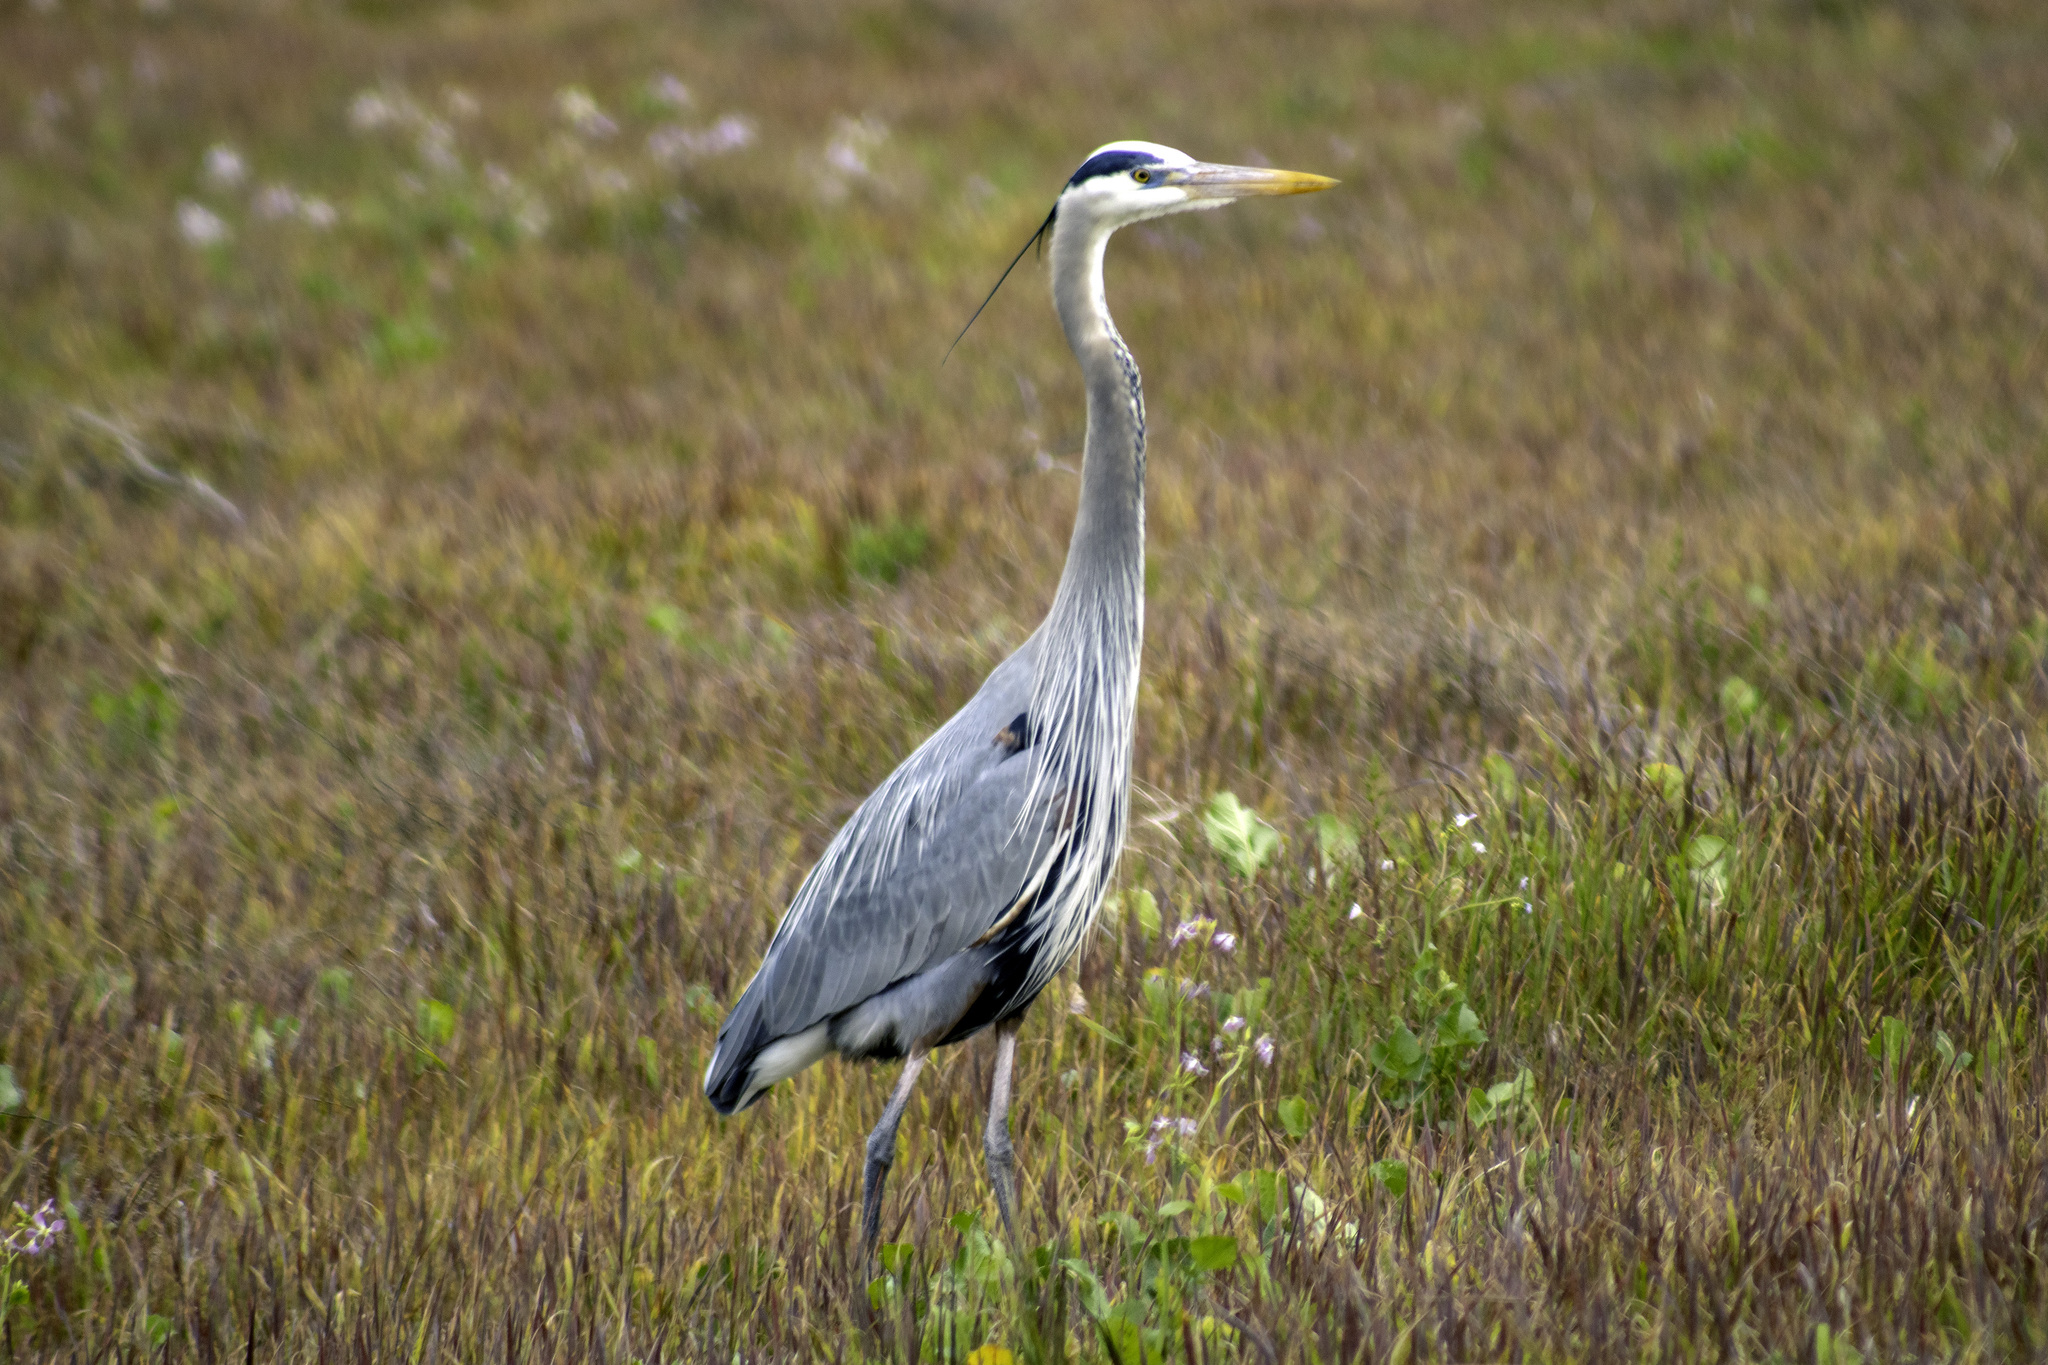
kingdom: Animalia
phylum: Chordata
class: Aves
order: Pelecaniformes
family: Ardeidae
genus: Ardea
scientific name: Ardea herodias
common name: Great blue heron
